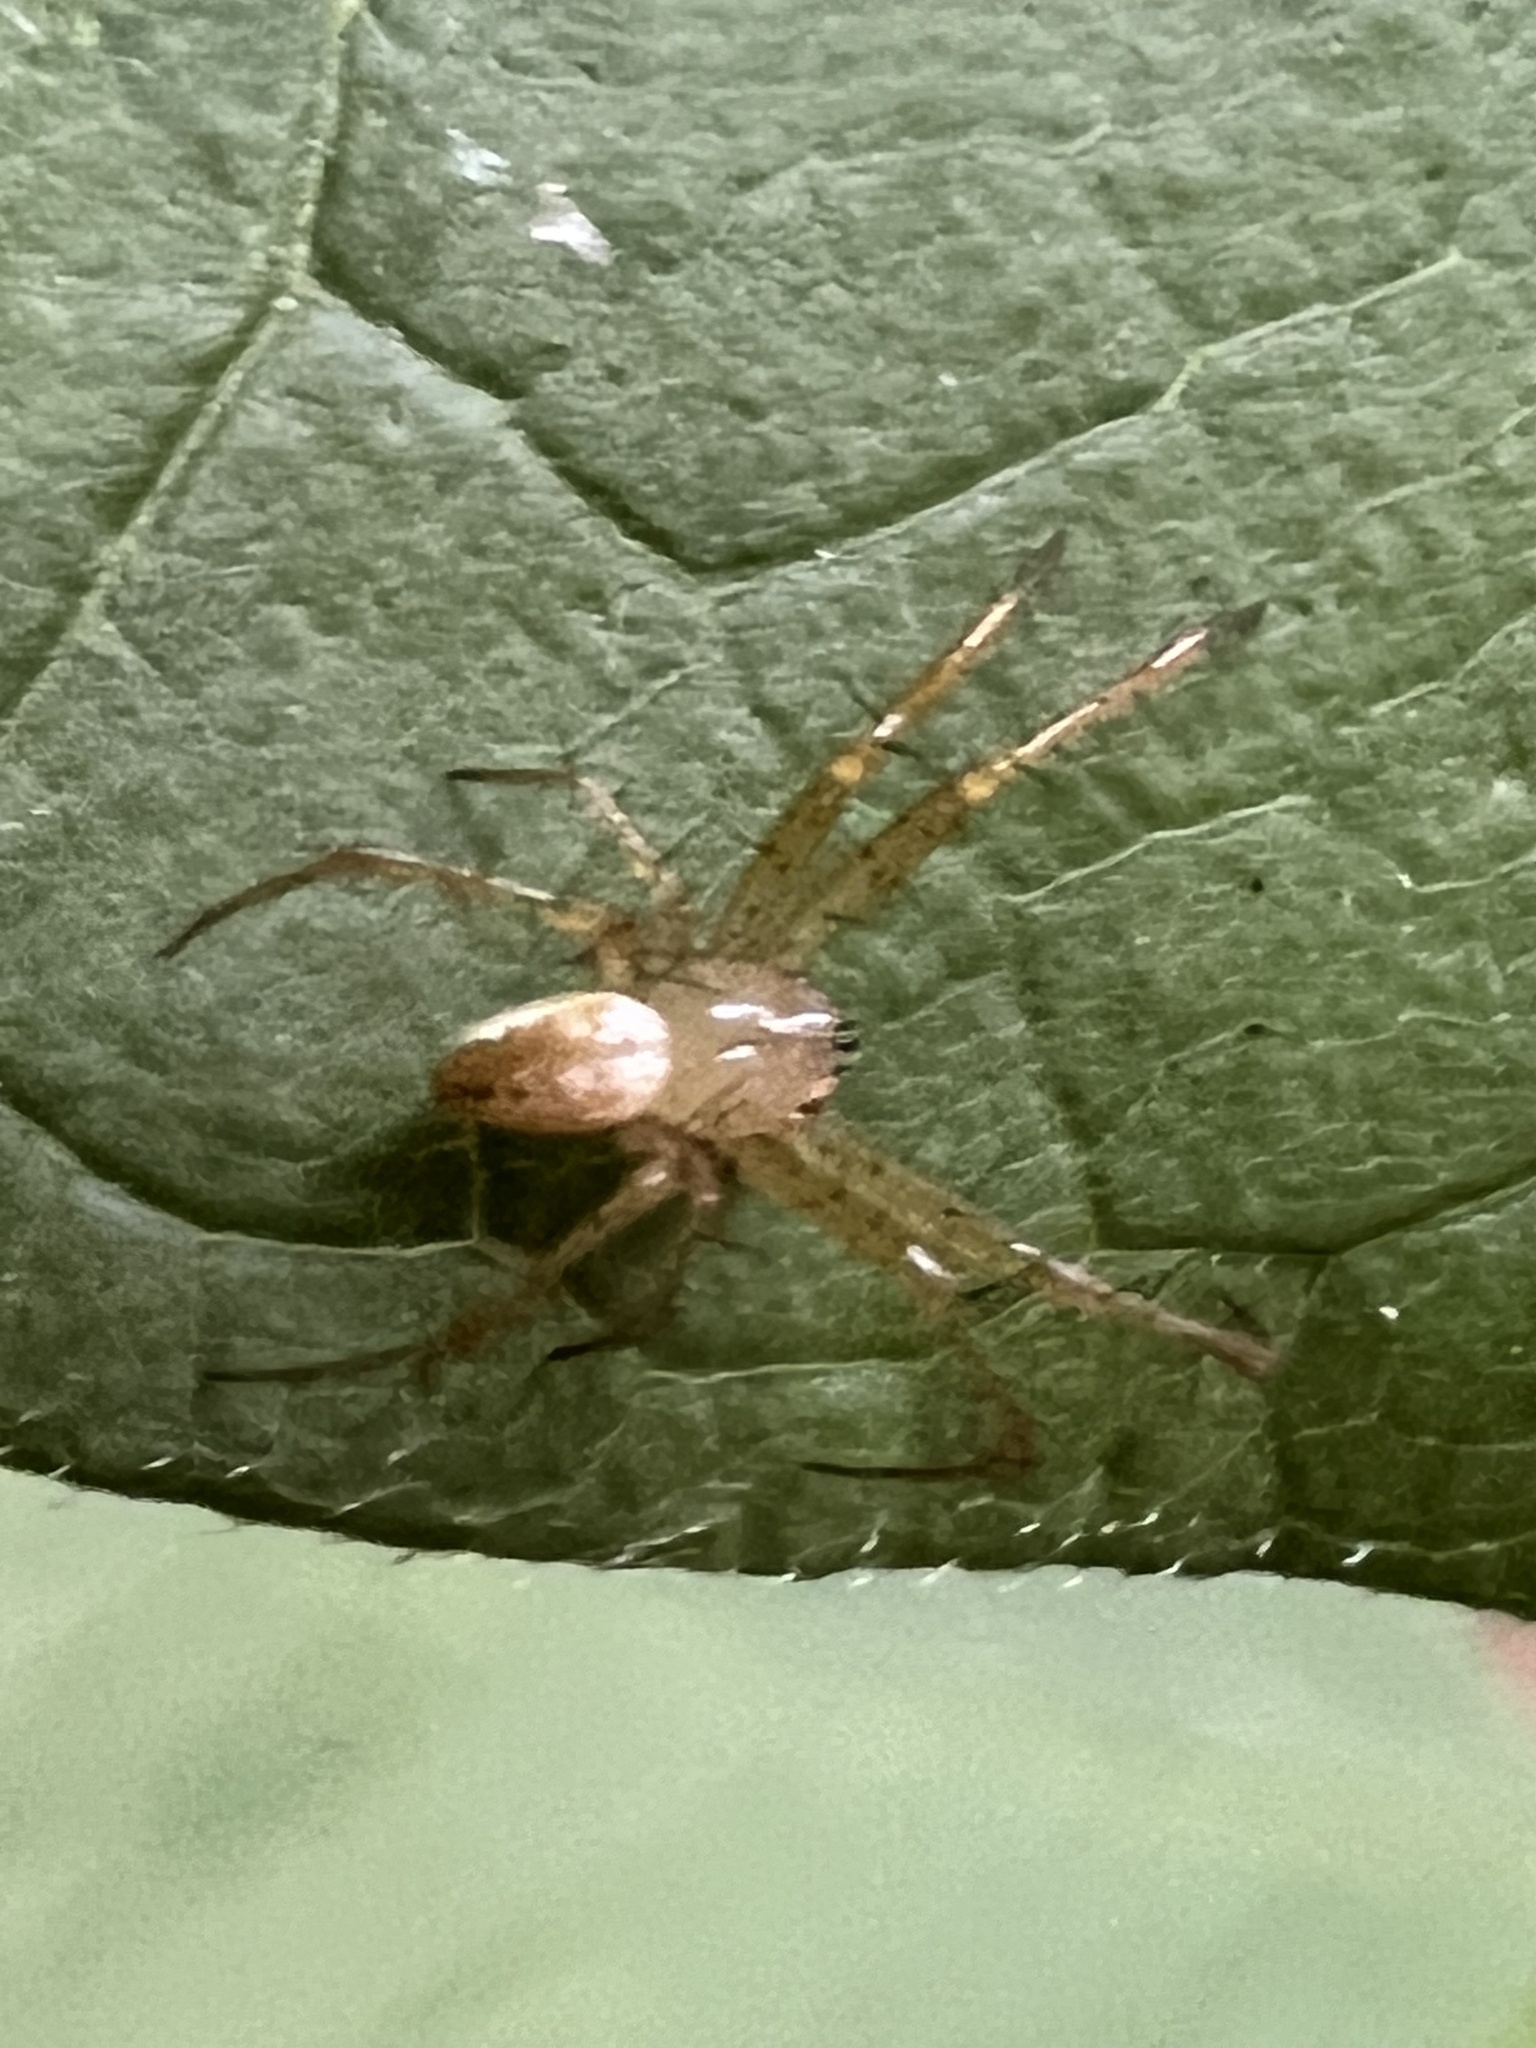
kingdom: Animalia
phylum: Arthropoda
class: Arachnida
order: Araneae
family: Araneidae
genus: Mangora
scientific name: Mangora maculata
